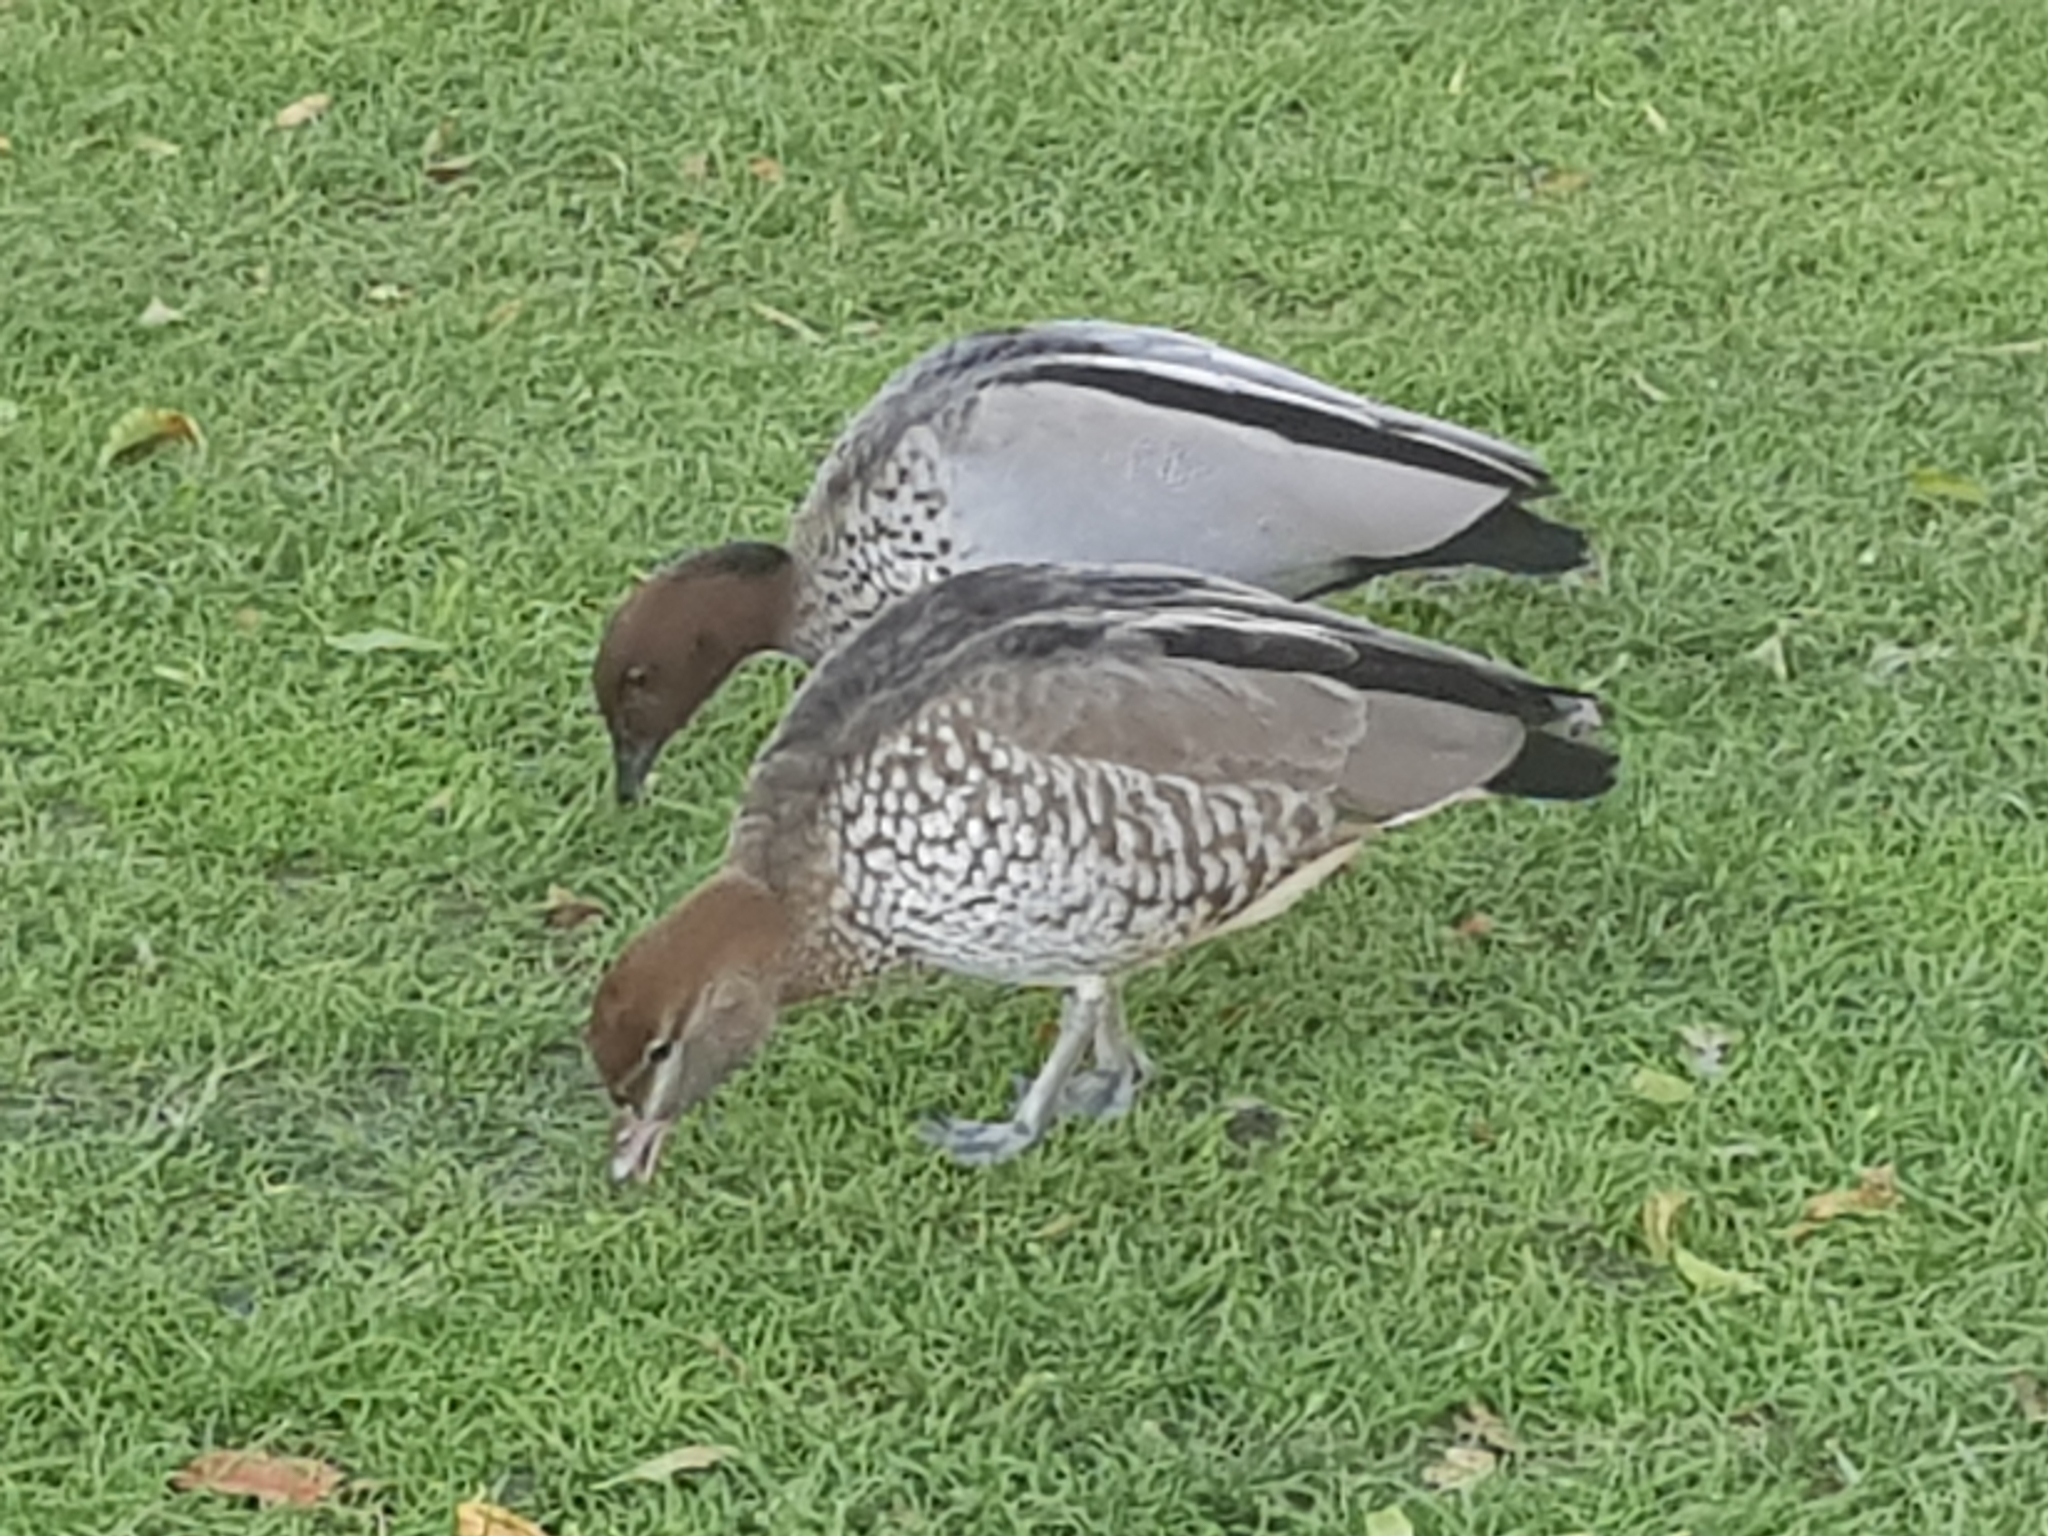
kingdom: Animalia
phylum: Chordata
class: Aves
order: Anseriformes
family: Anatidae
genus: Chenonetta
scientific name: Chenonetta jubata
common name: Maned duck
